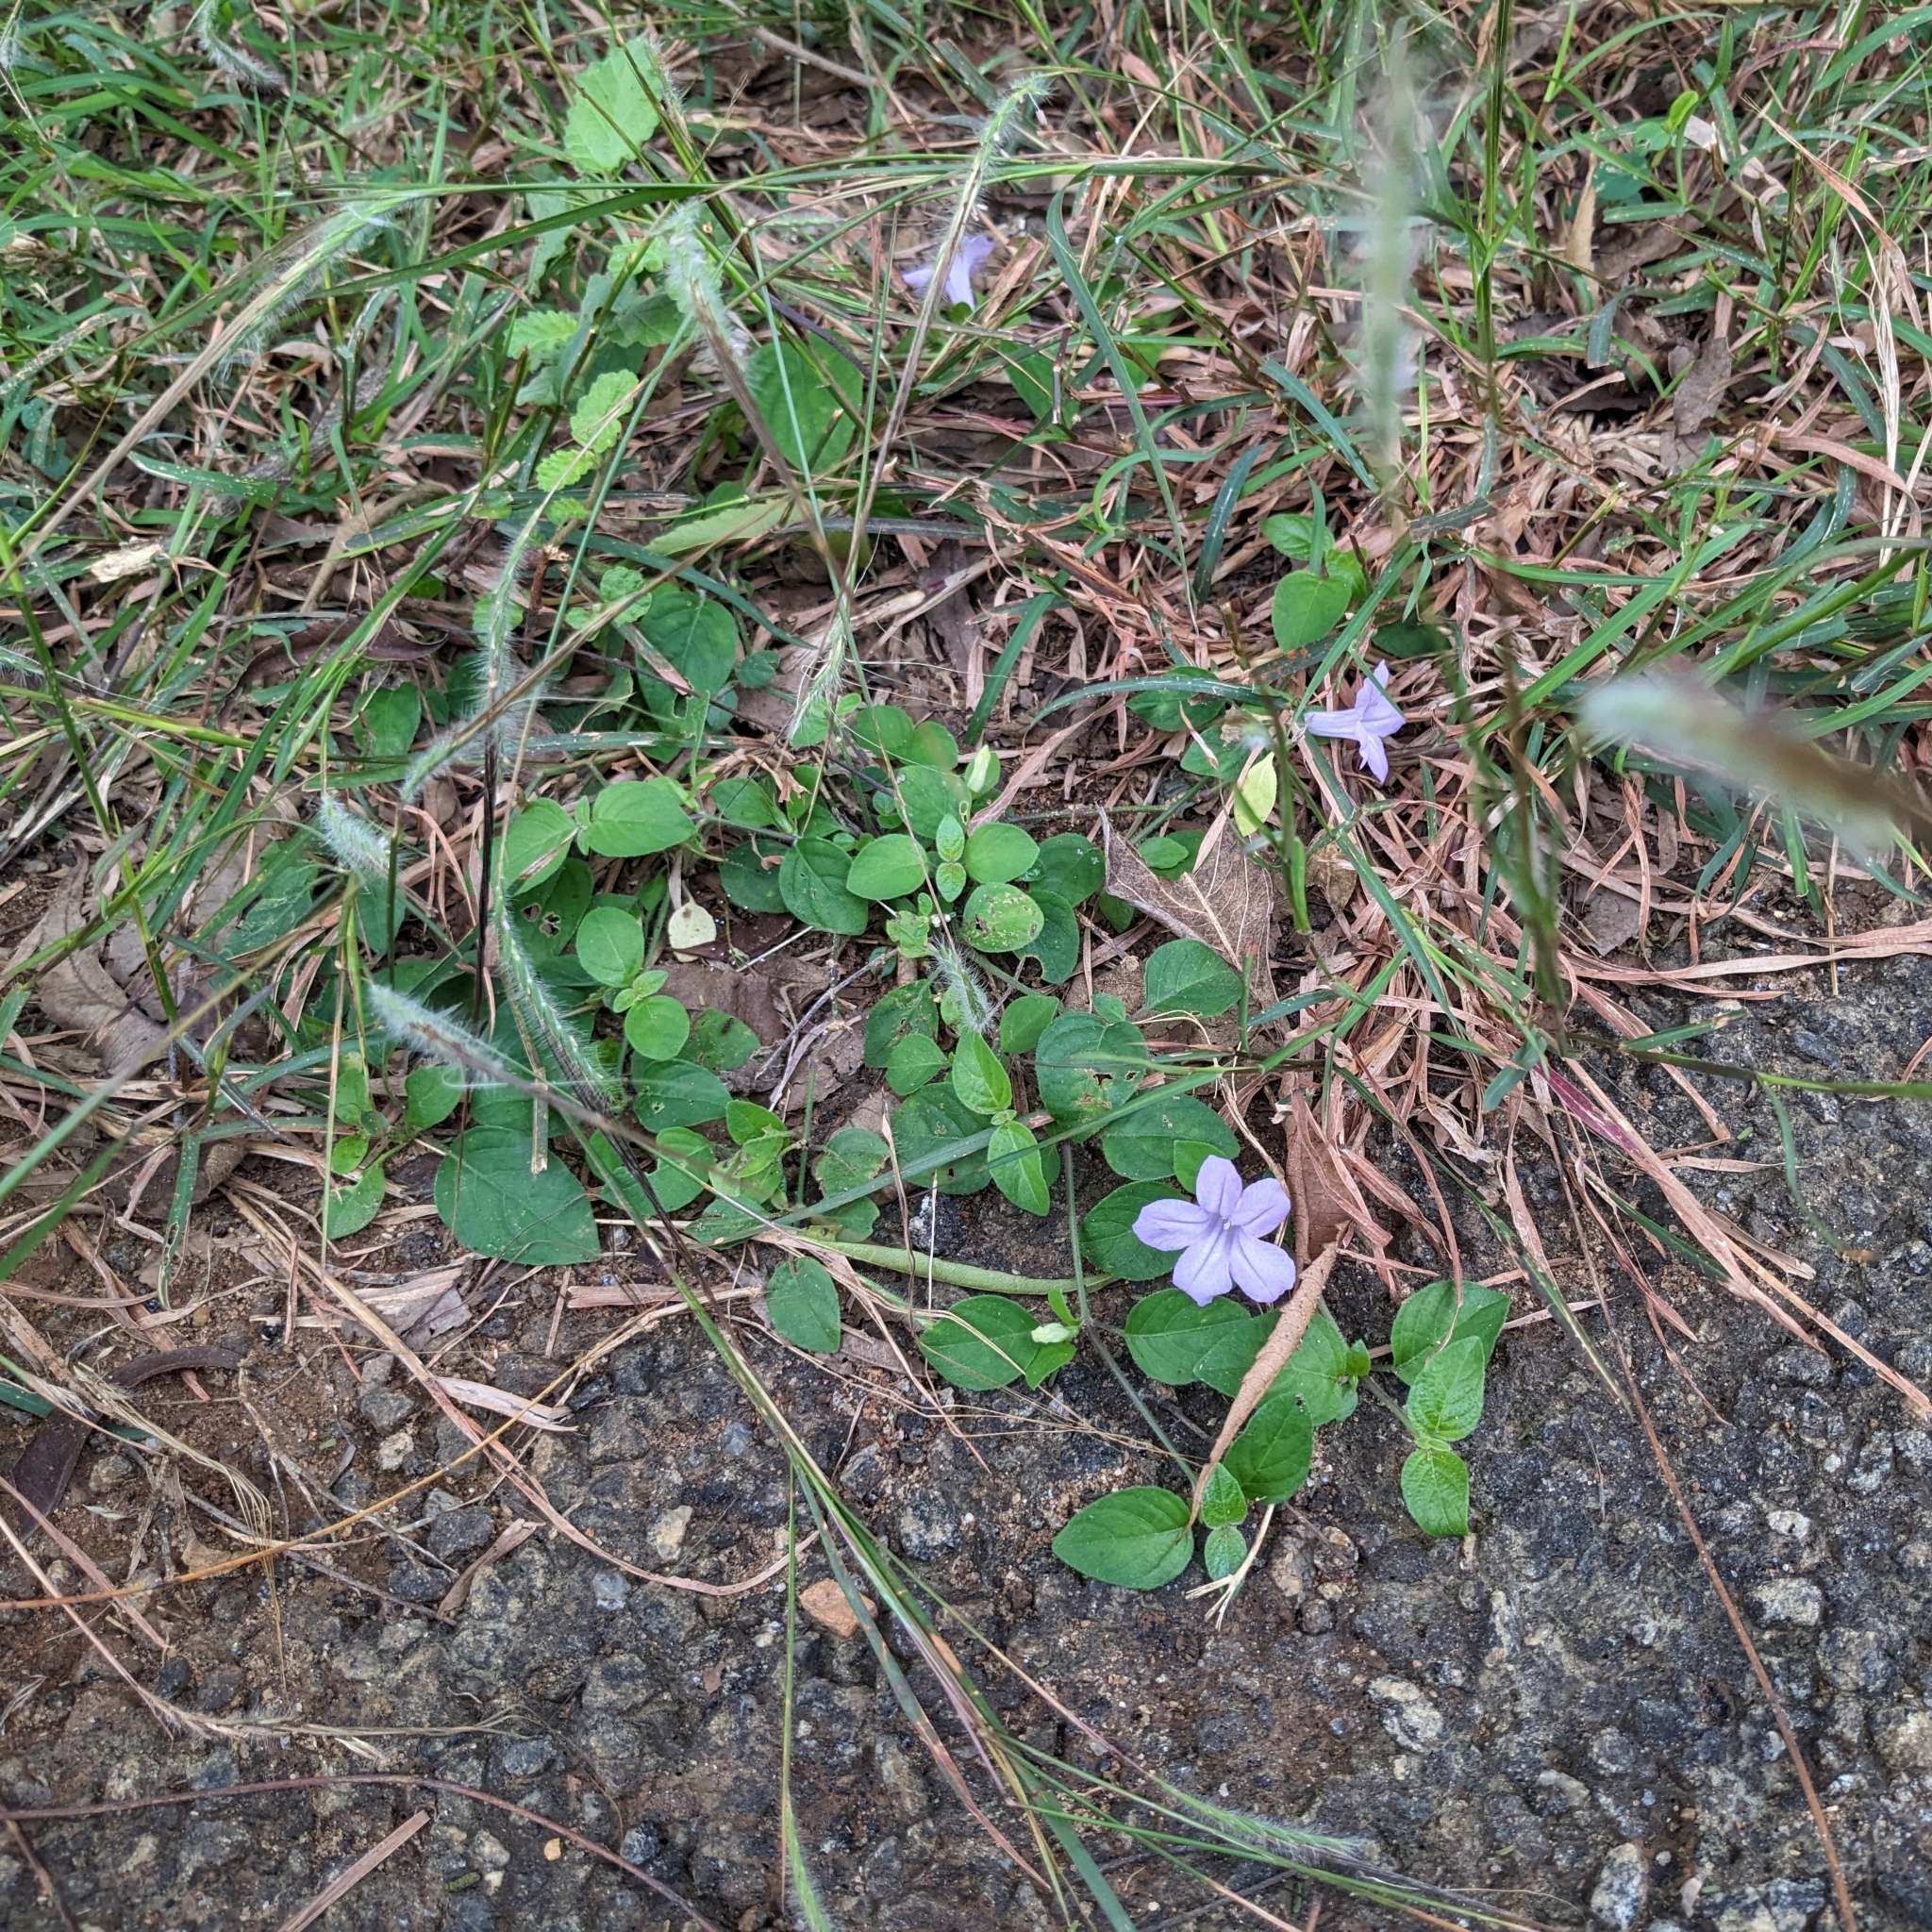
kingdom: Plantae
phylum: Tracheophyta
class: Magnoliopsida
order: Lamiales
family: Acanthaceae
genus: Ruellia
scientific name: Ruellia prostrata
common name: Prostrate wild petunia
